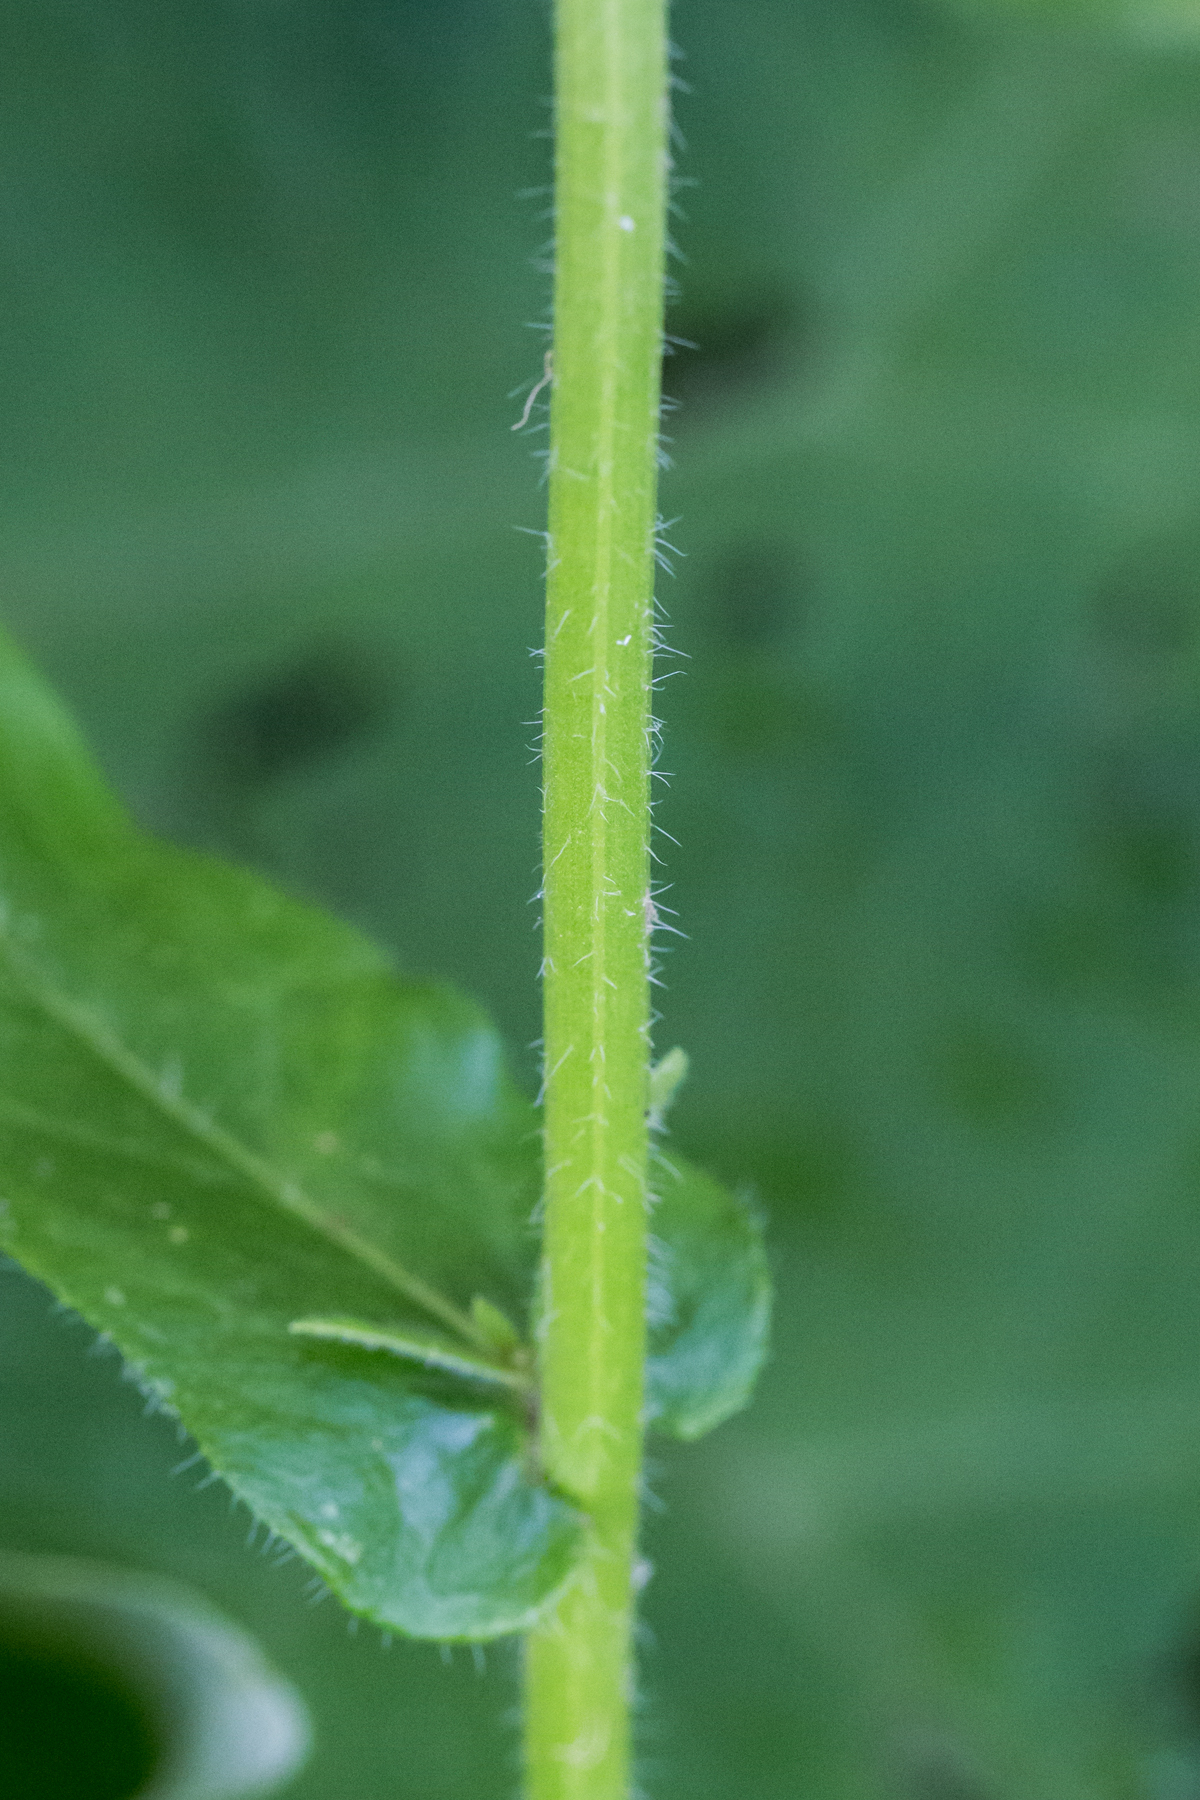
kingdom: Plantae
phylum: Tracheophyta
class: Magnoliopsida
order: Asterales
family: Asteraceae
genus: Erigeron
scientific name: Erigeron philadelphicus
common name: Robin's-plantain
